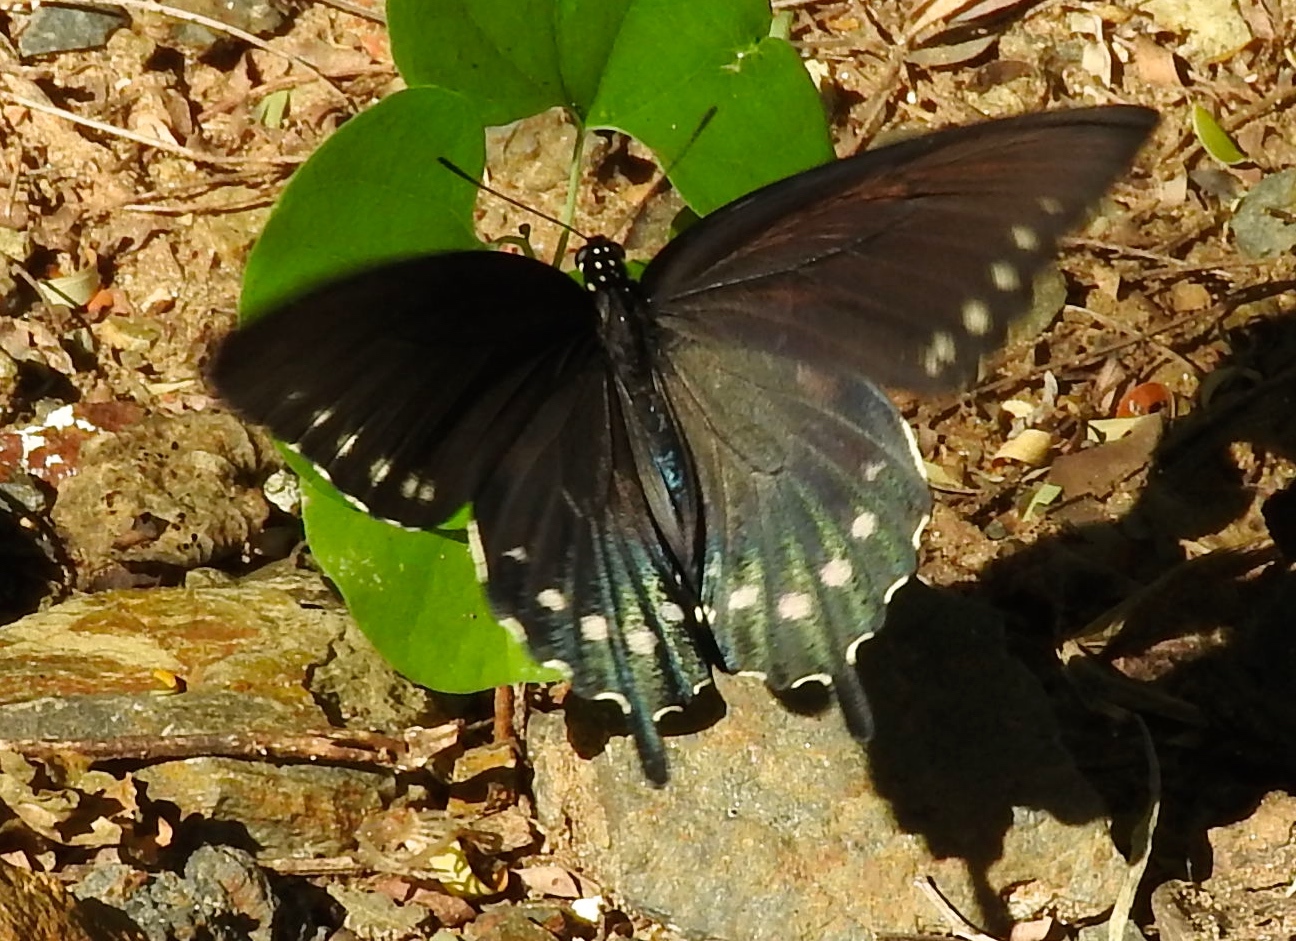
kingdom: Animalia
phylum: Arthropoda
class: Insecta
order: Lepidoptera
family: Papilionidae
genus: Battus
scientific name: Battus philenor
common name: Pipevine swallowtail
